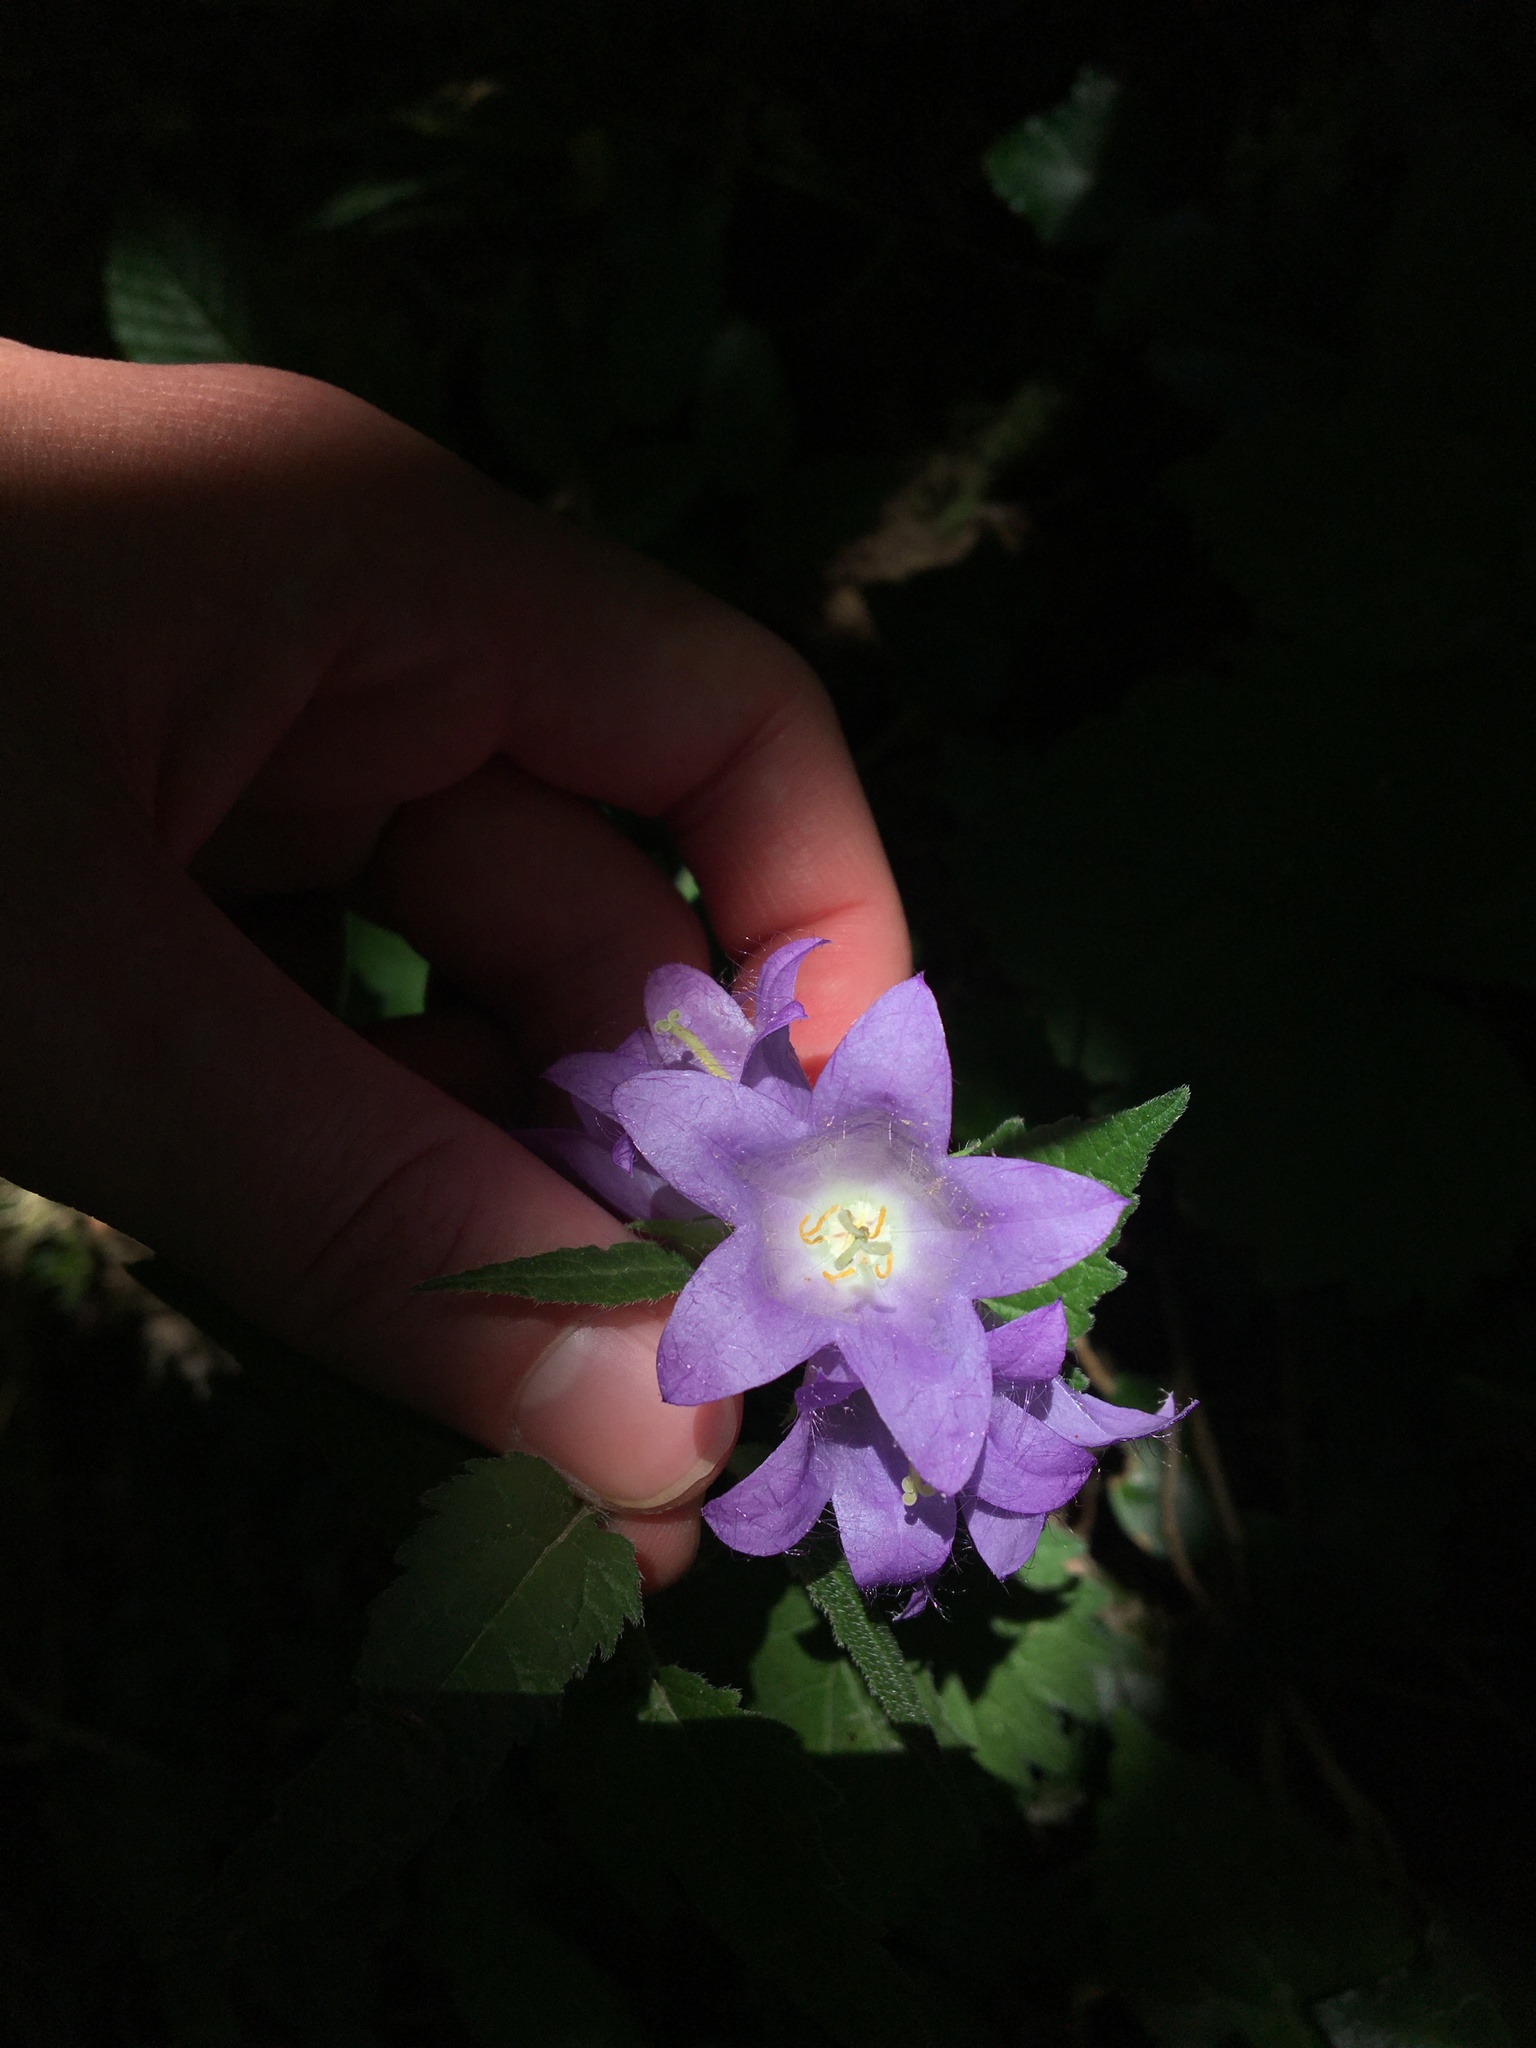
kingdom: Plantae
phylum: Tracheophyta
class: Magnoliopsida
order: Asterales
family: Campanulaceae
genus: Campanula
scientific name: Campanula trachelium
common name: Nettle-leaved bellflower
